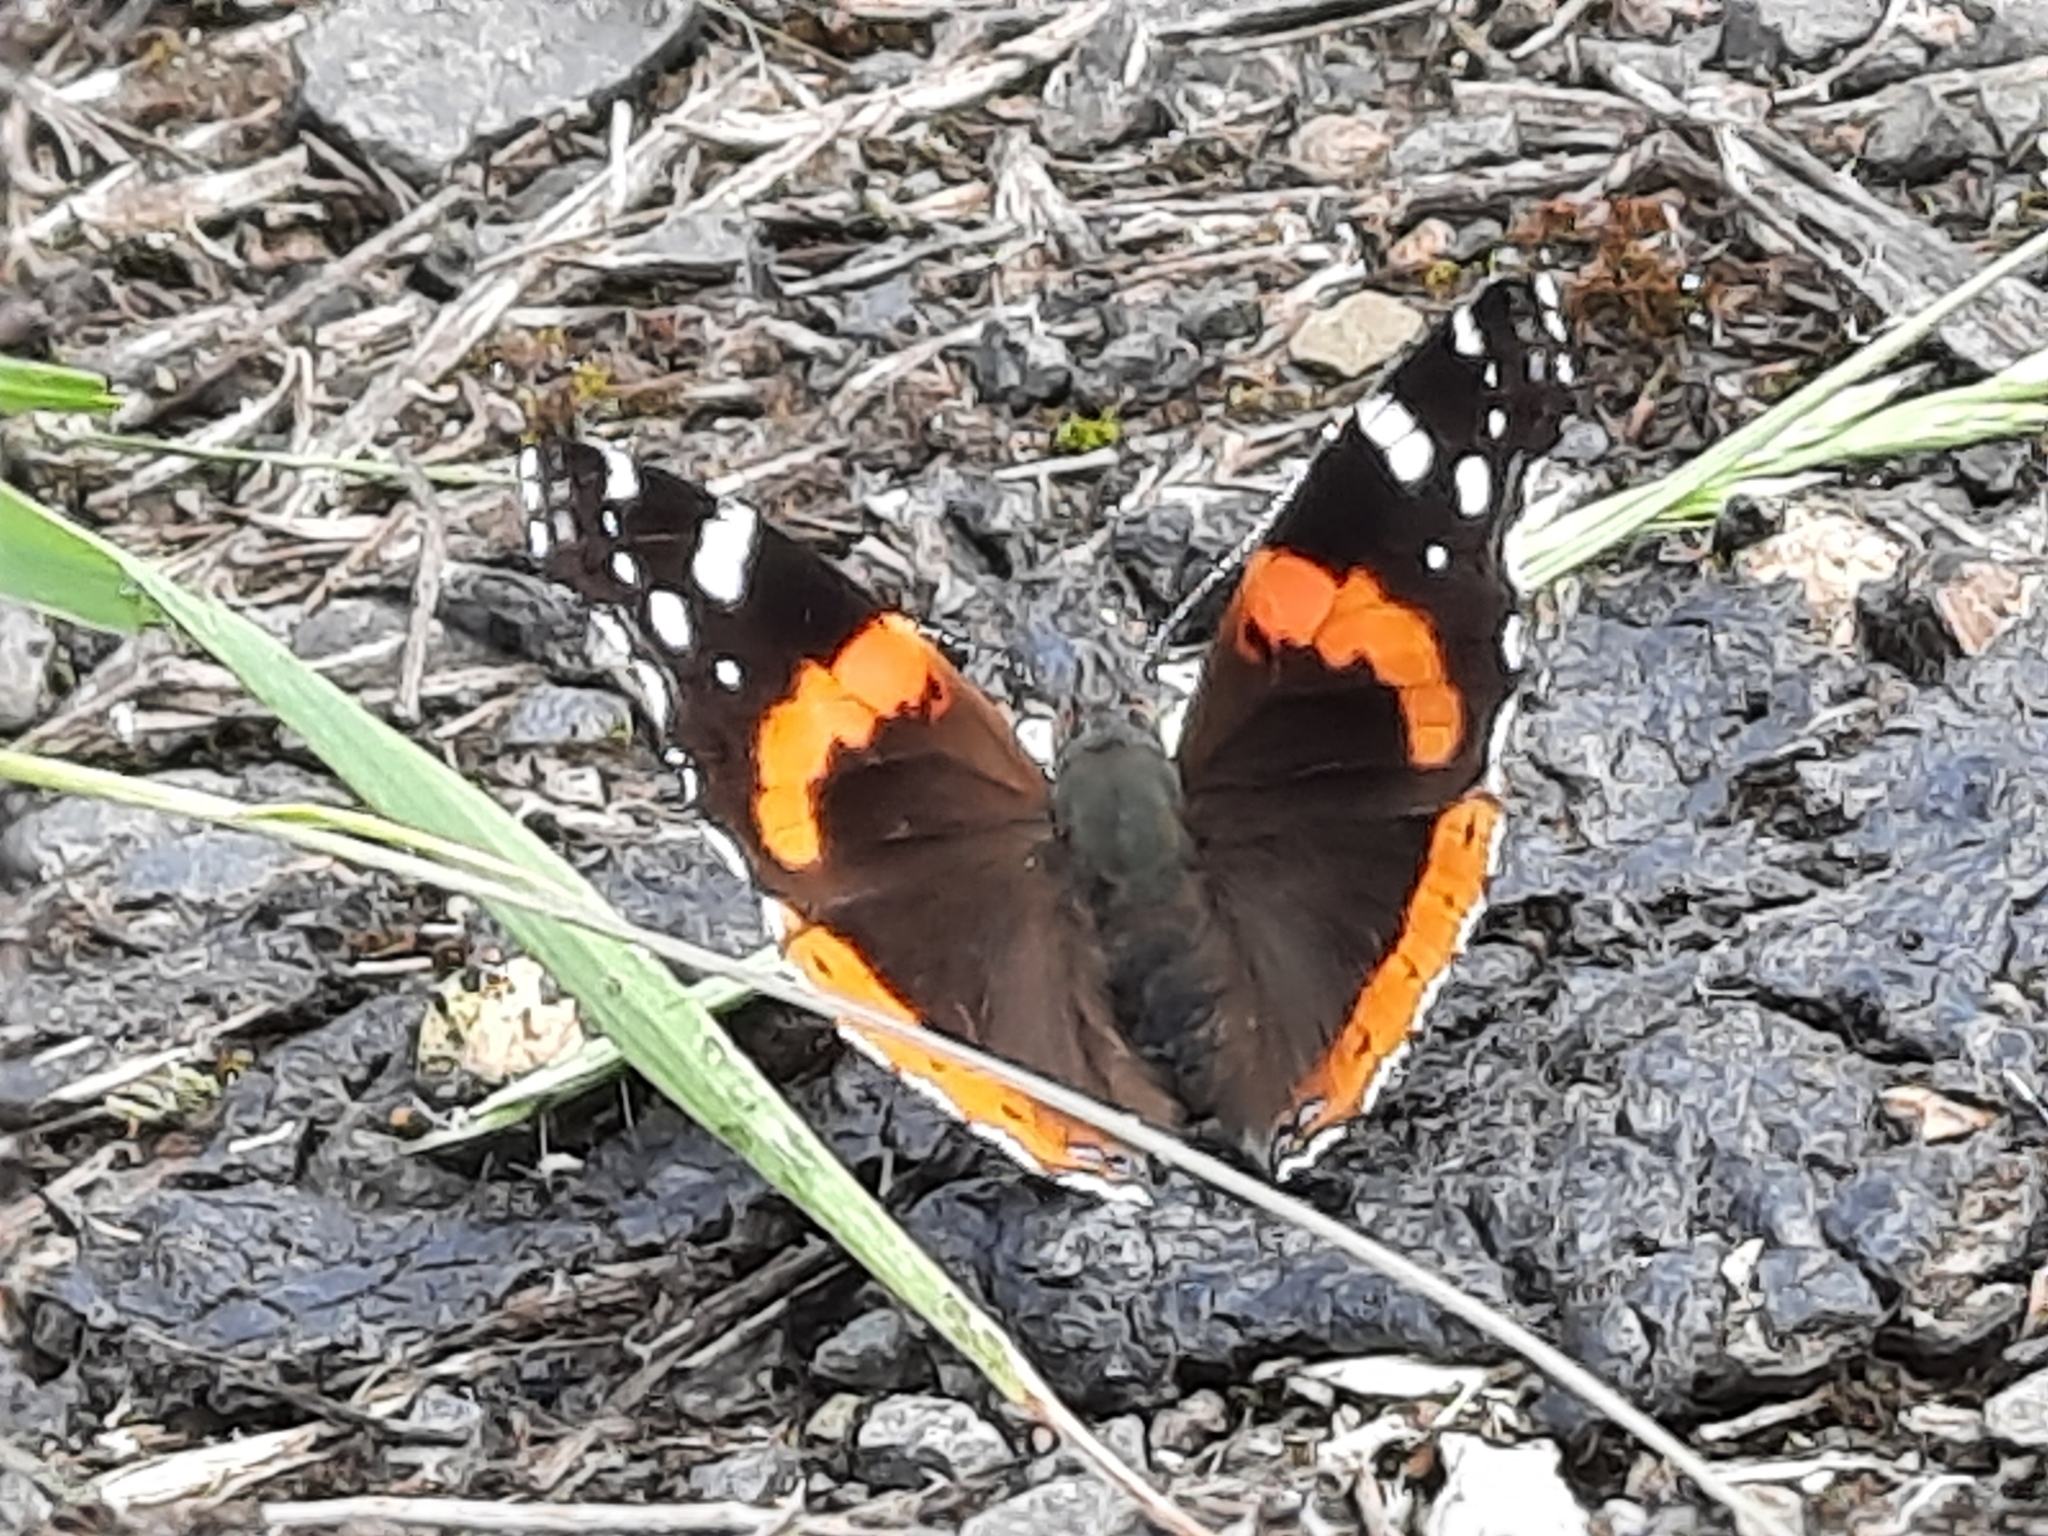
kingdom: Animalia
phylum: Arthropoda
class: Insecta
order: Lepidoptera
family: Nymphalidae
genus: Vanessa
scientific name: Vanessa atalanta
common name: Red admiral
